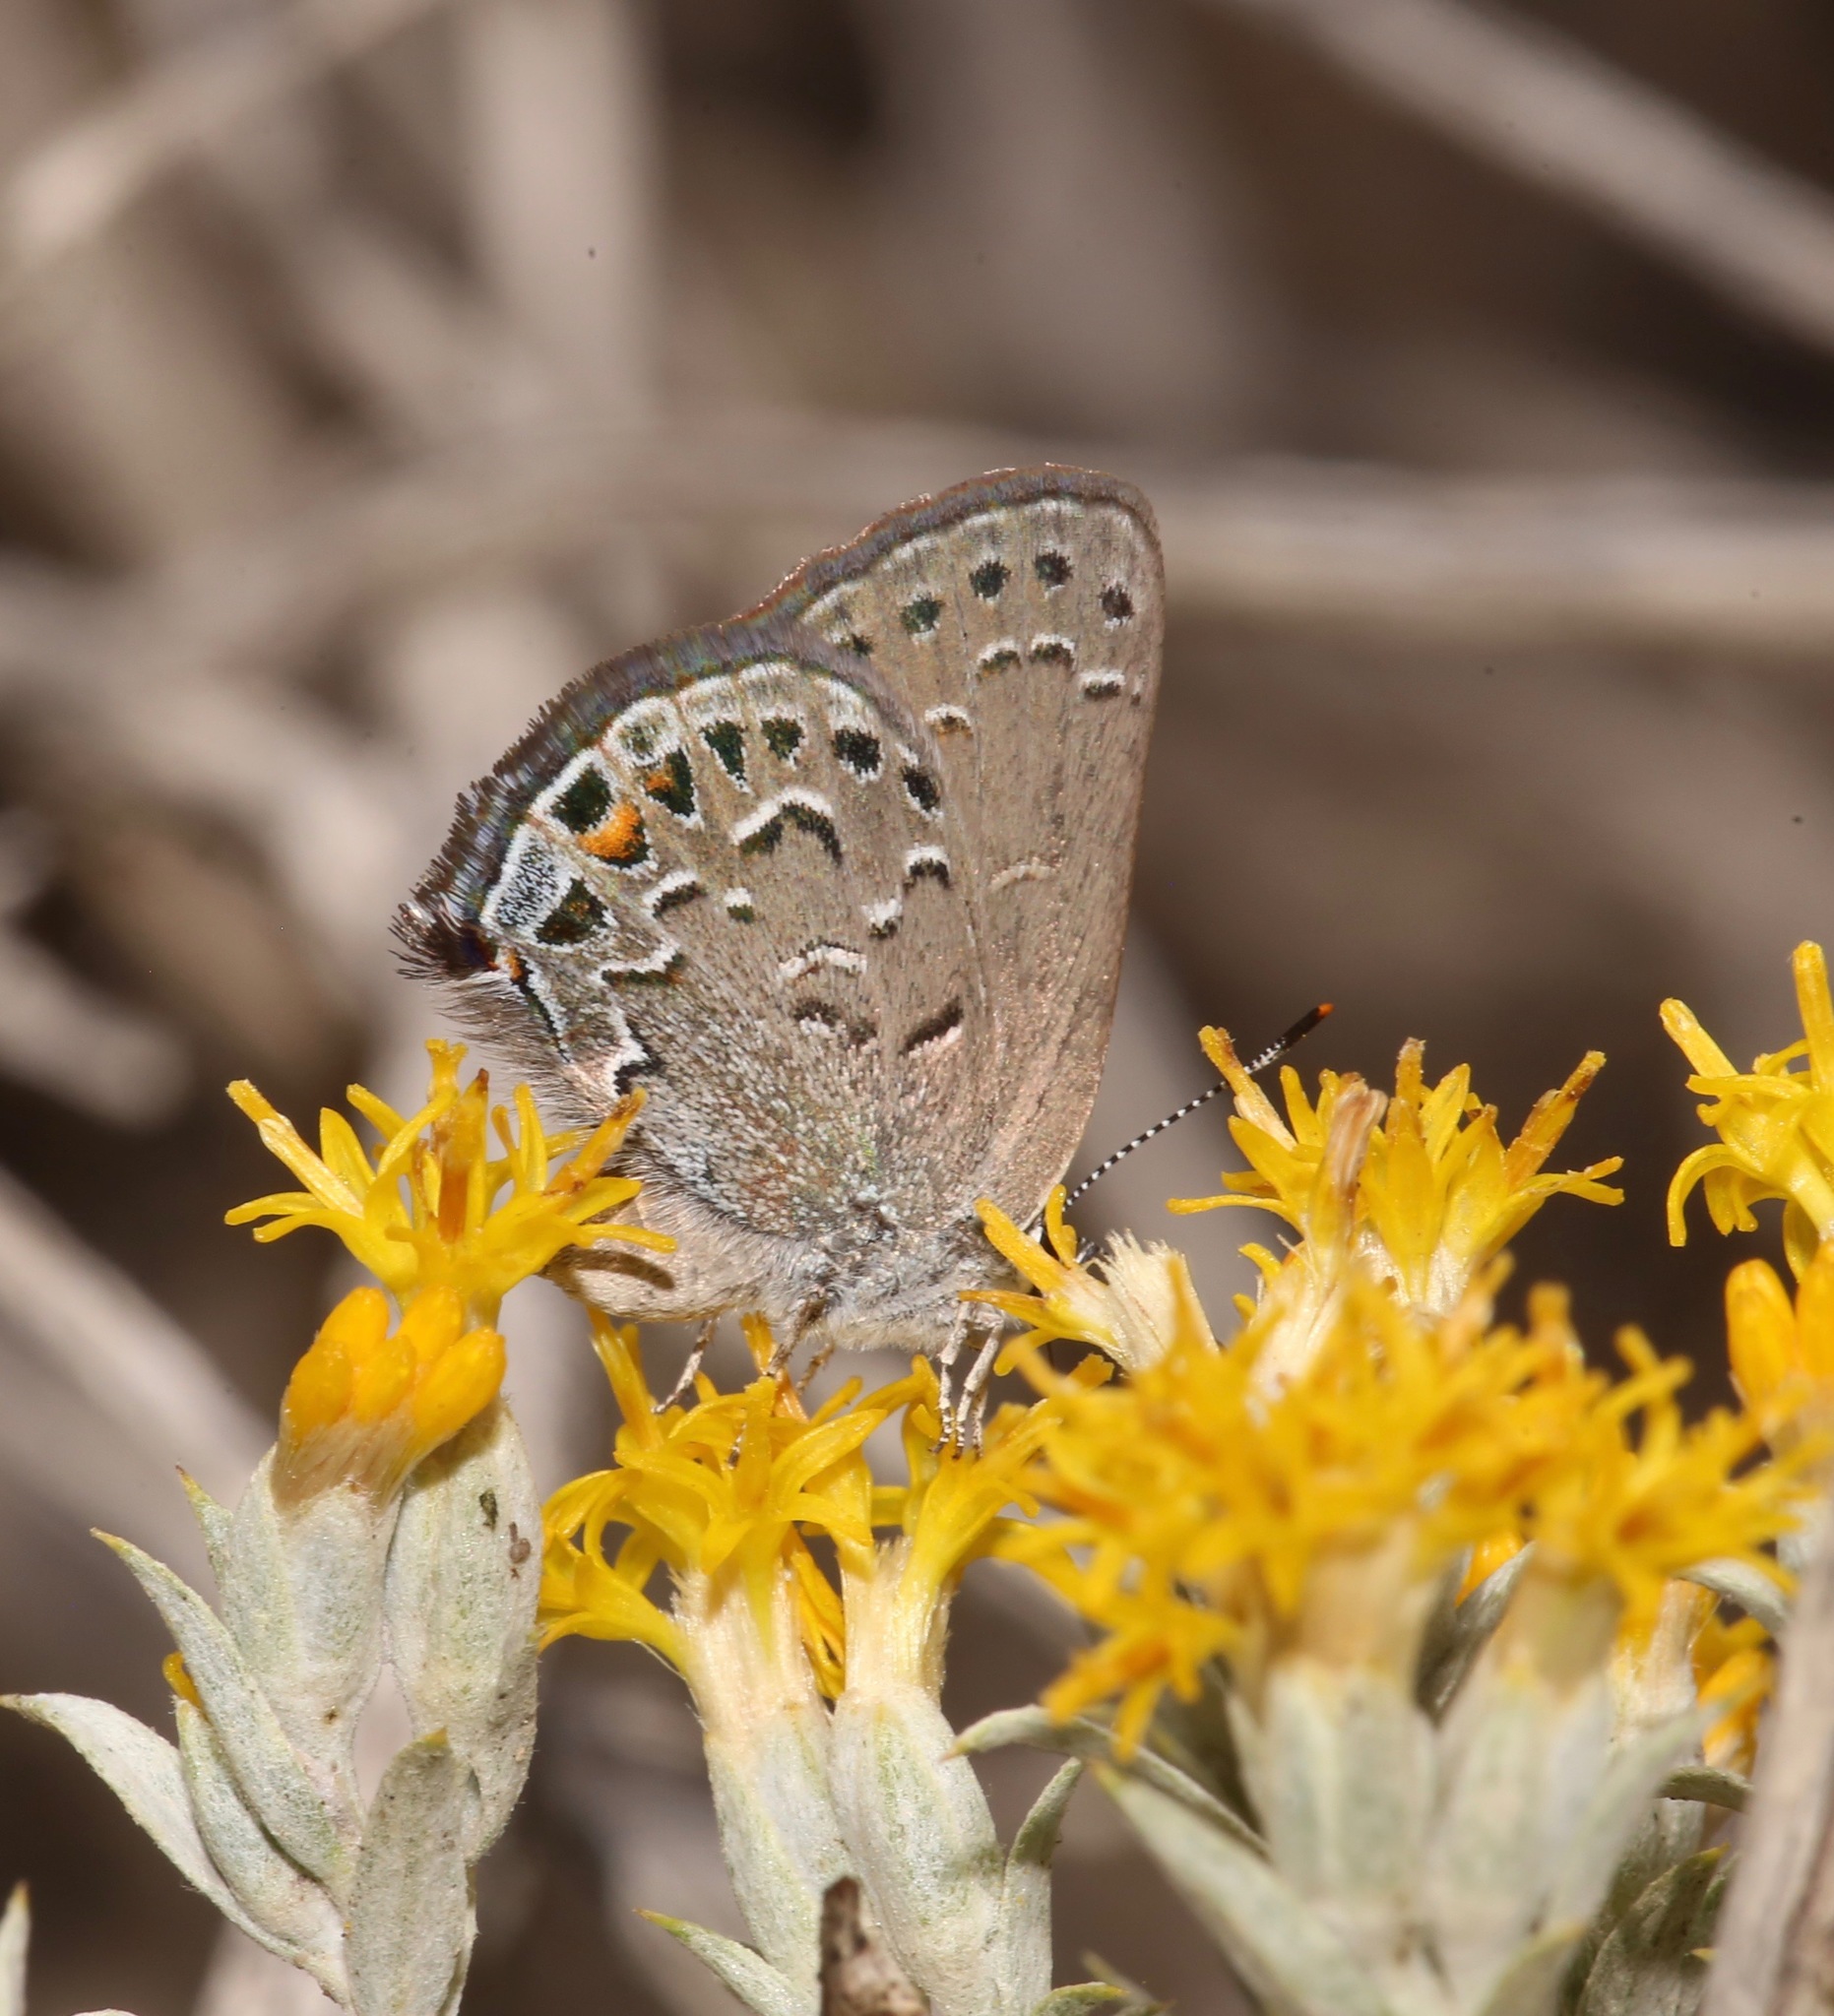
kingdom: Animalia
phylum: Arthropoda
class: Insecta
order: Lepidoptera
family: Lycaenidae
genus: Satyrium
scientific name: Satyrium behrii
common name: Behr's hairstreak
